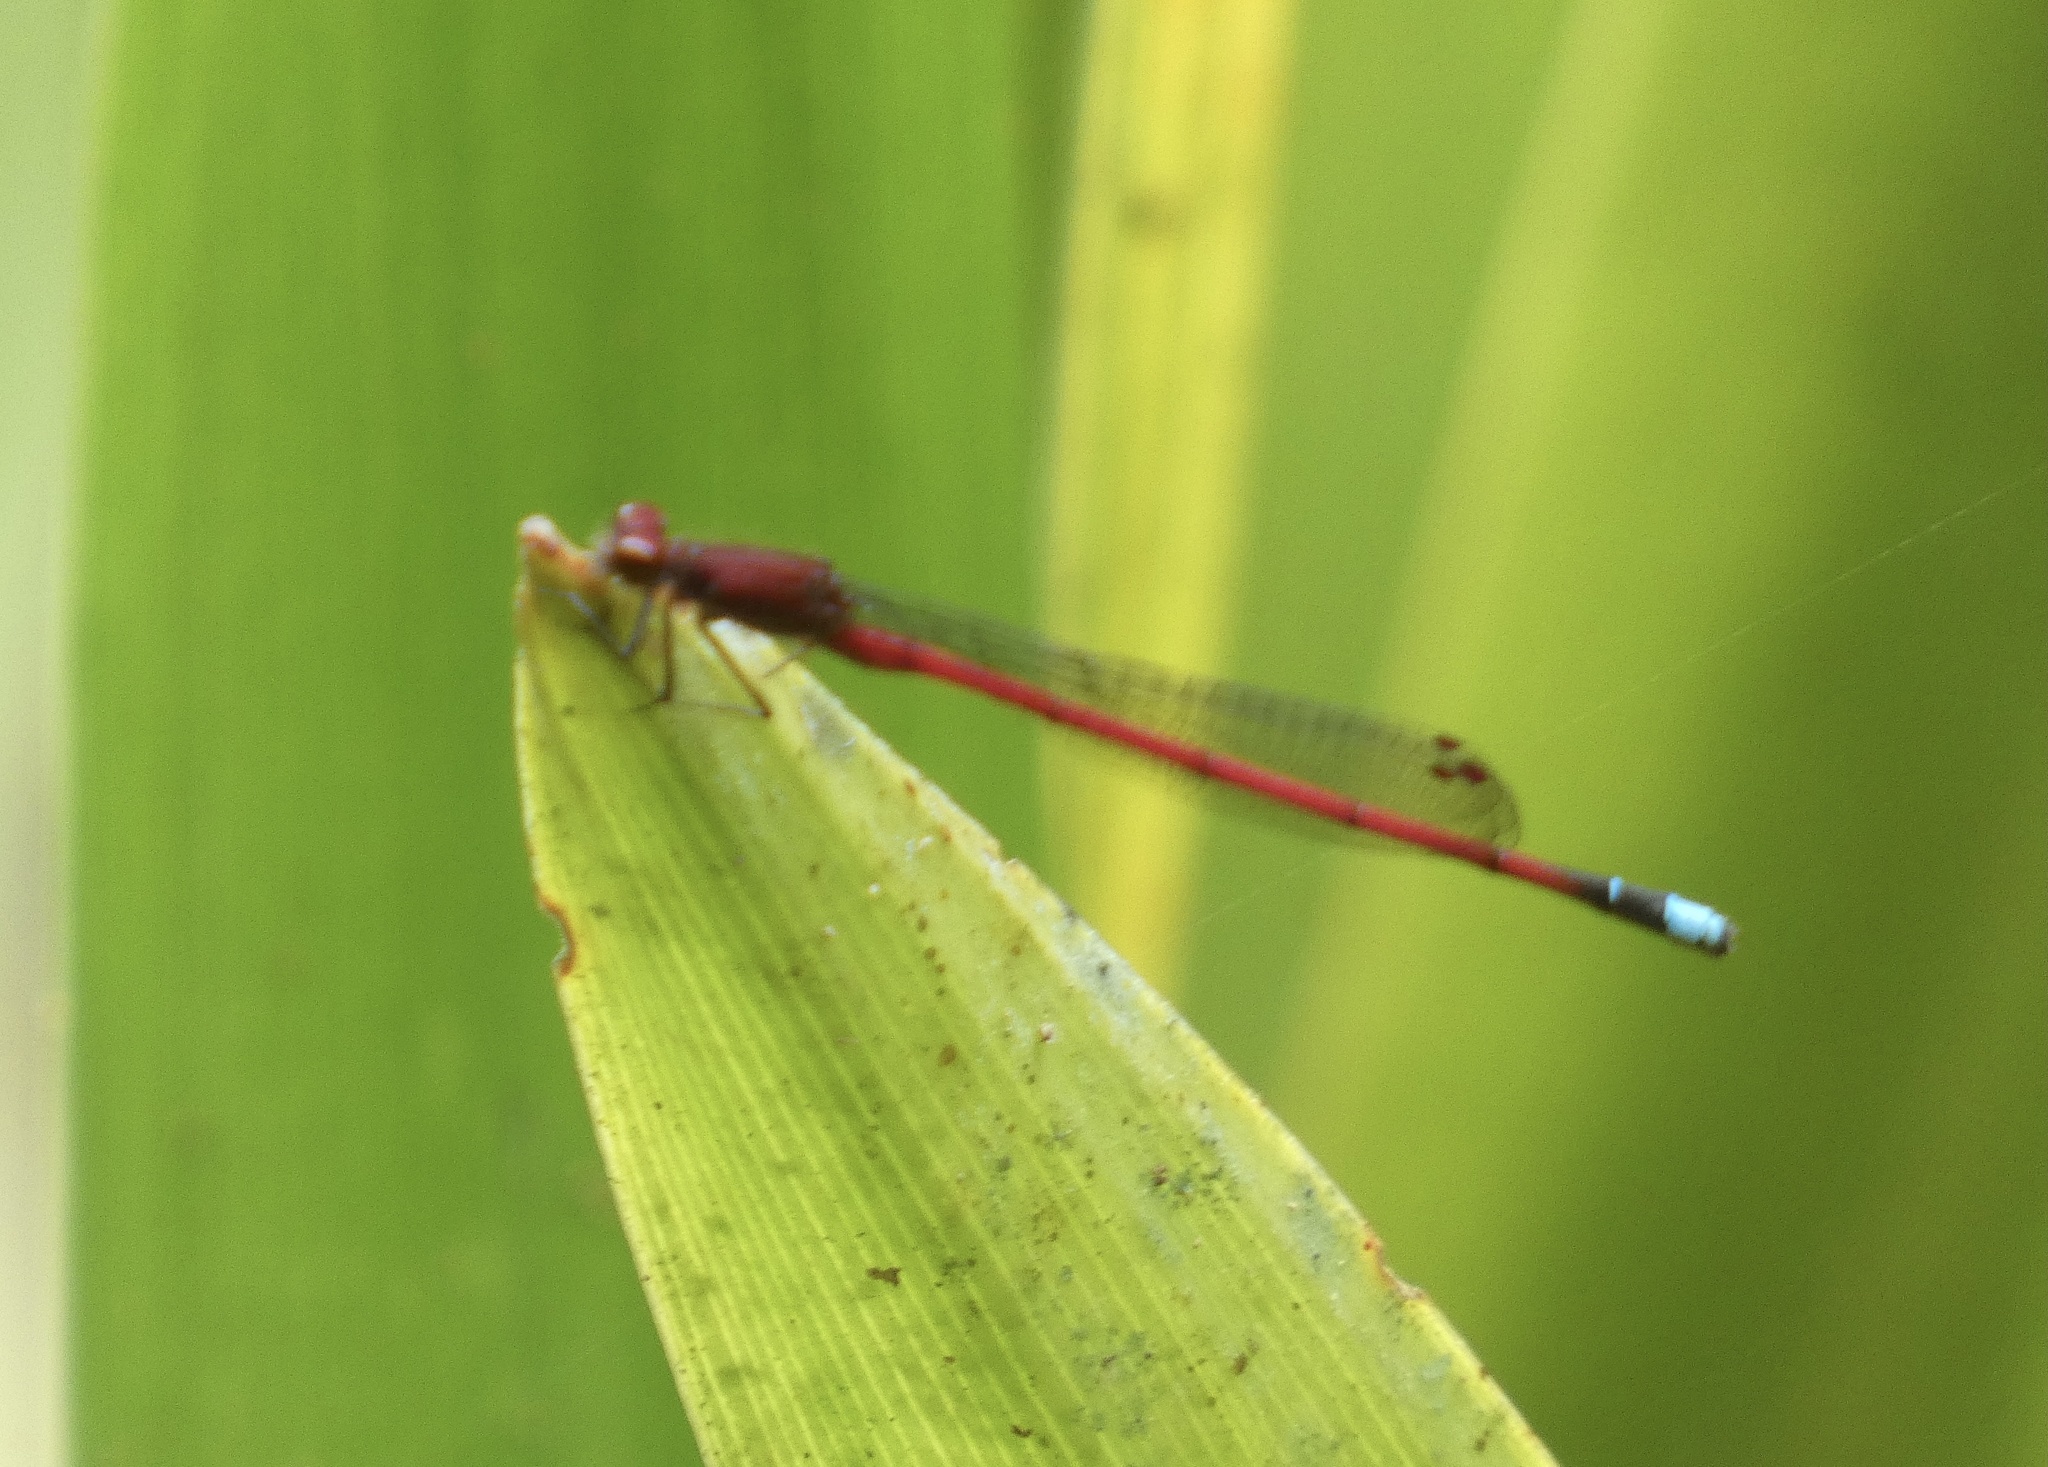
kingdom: Animalia
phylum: Arthropoda
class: Insecta
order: Odonata
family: Coenagrionidae
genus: Oxyagrion
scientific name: Oxyagrion simile
